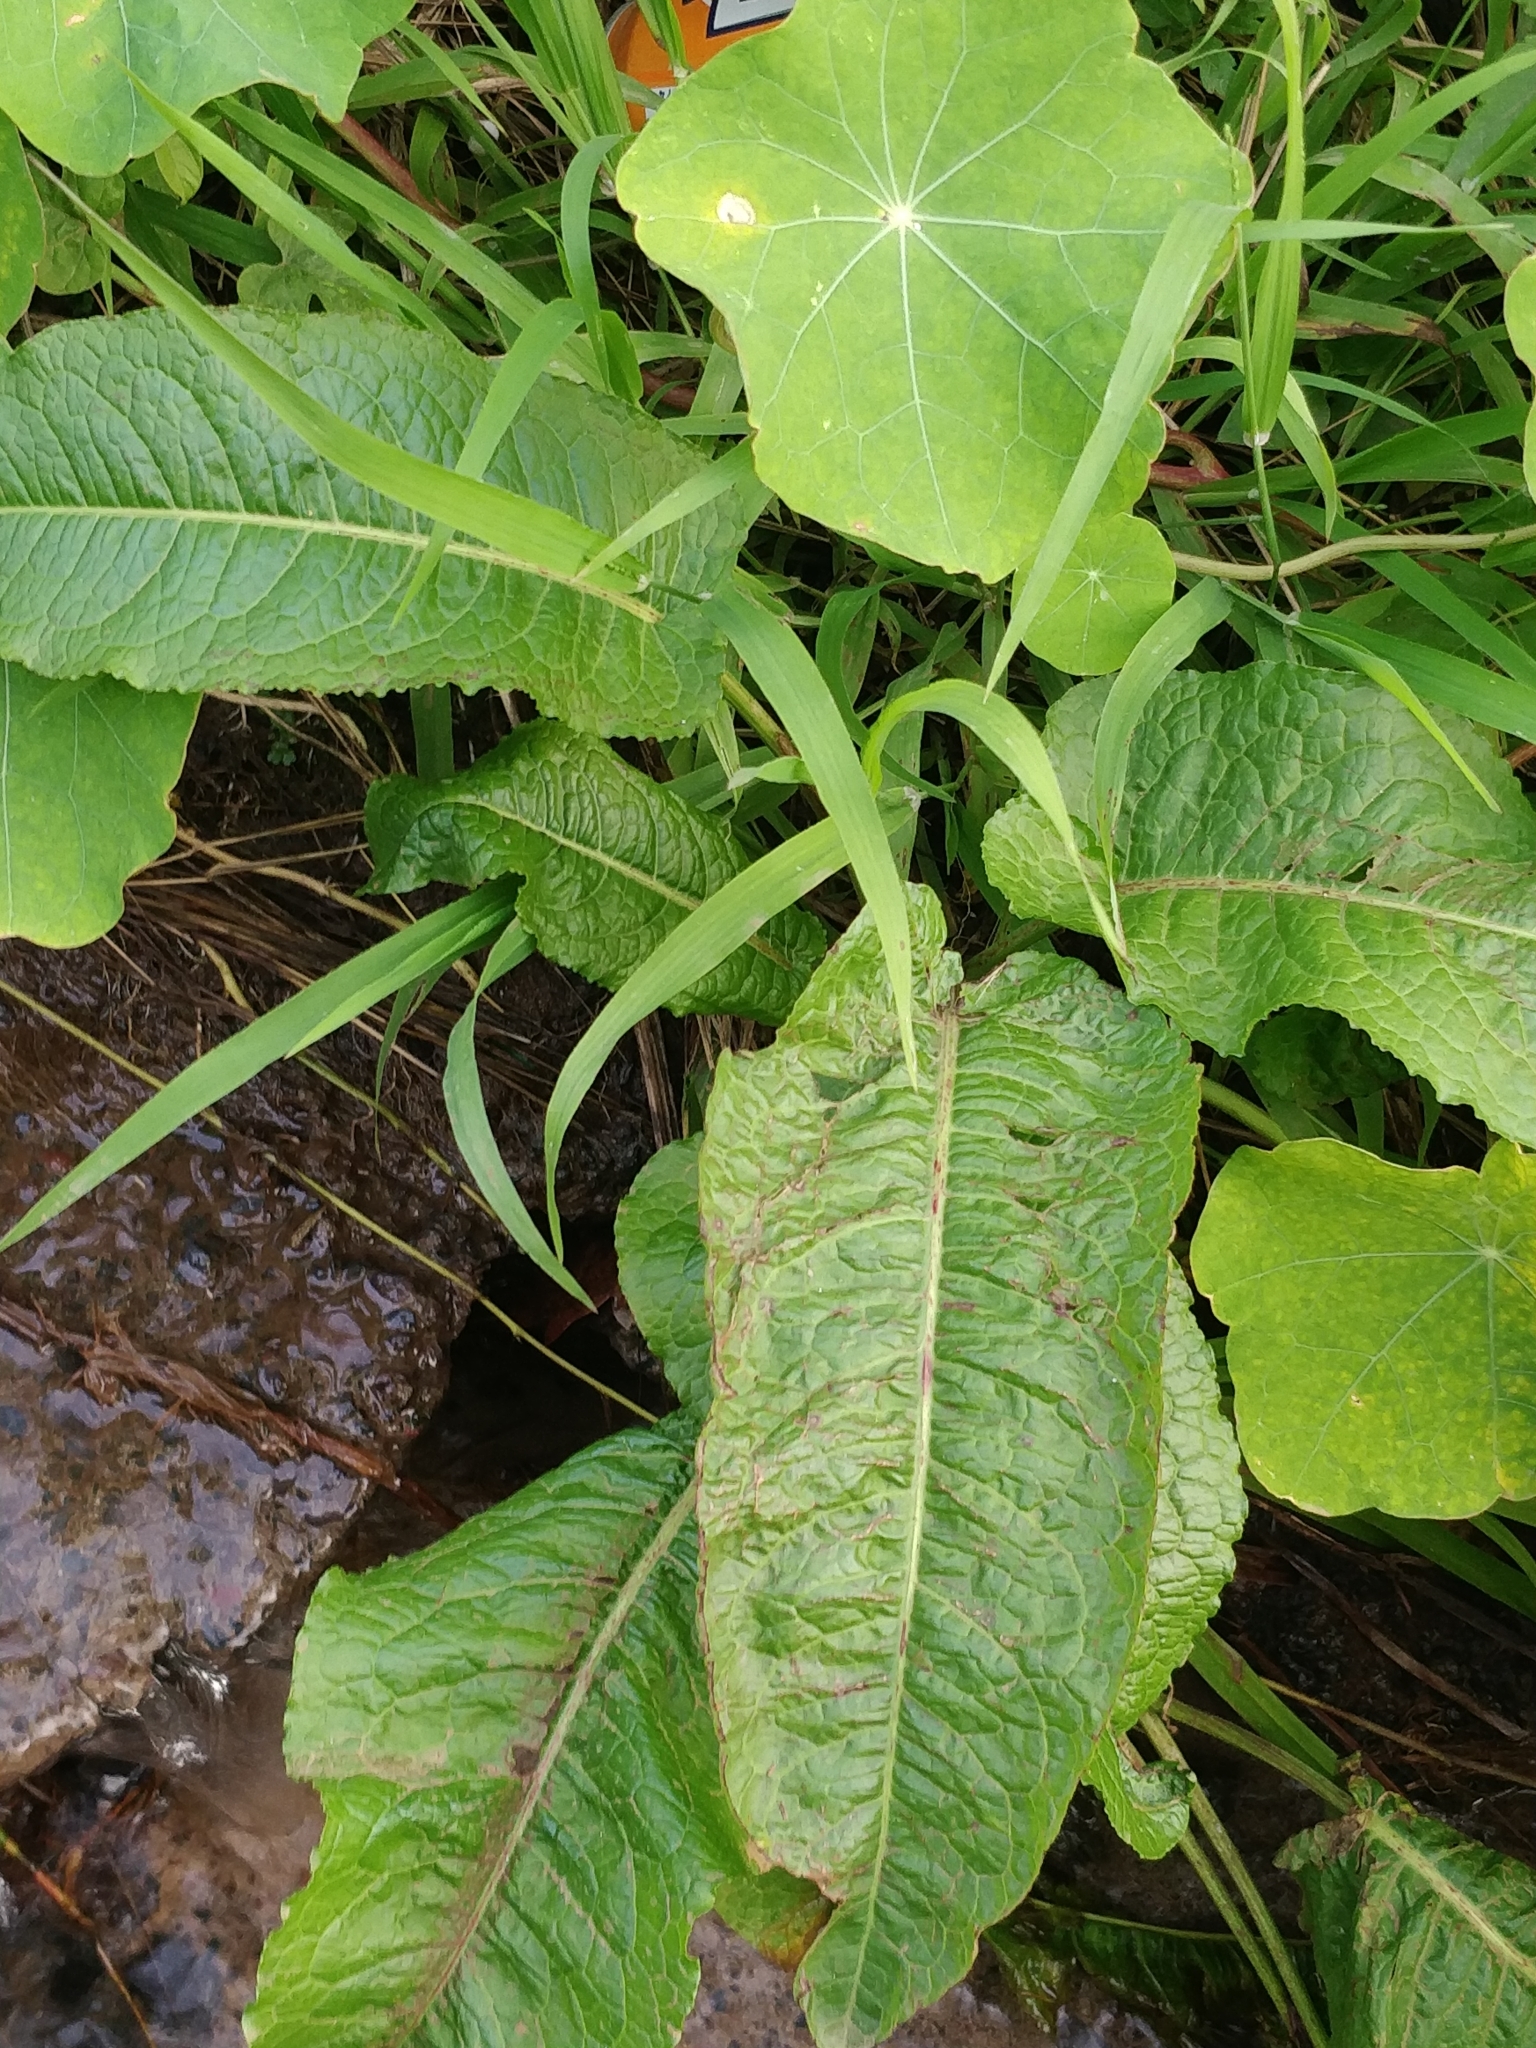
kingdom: Plantae
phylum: Tracheophyta
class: Magnoliopsida
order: Caryophyllales
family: Polygonaceae
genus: Rumex
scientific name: Rumex obtusifolius
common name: Bitter dock
